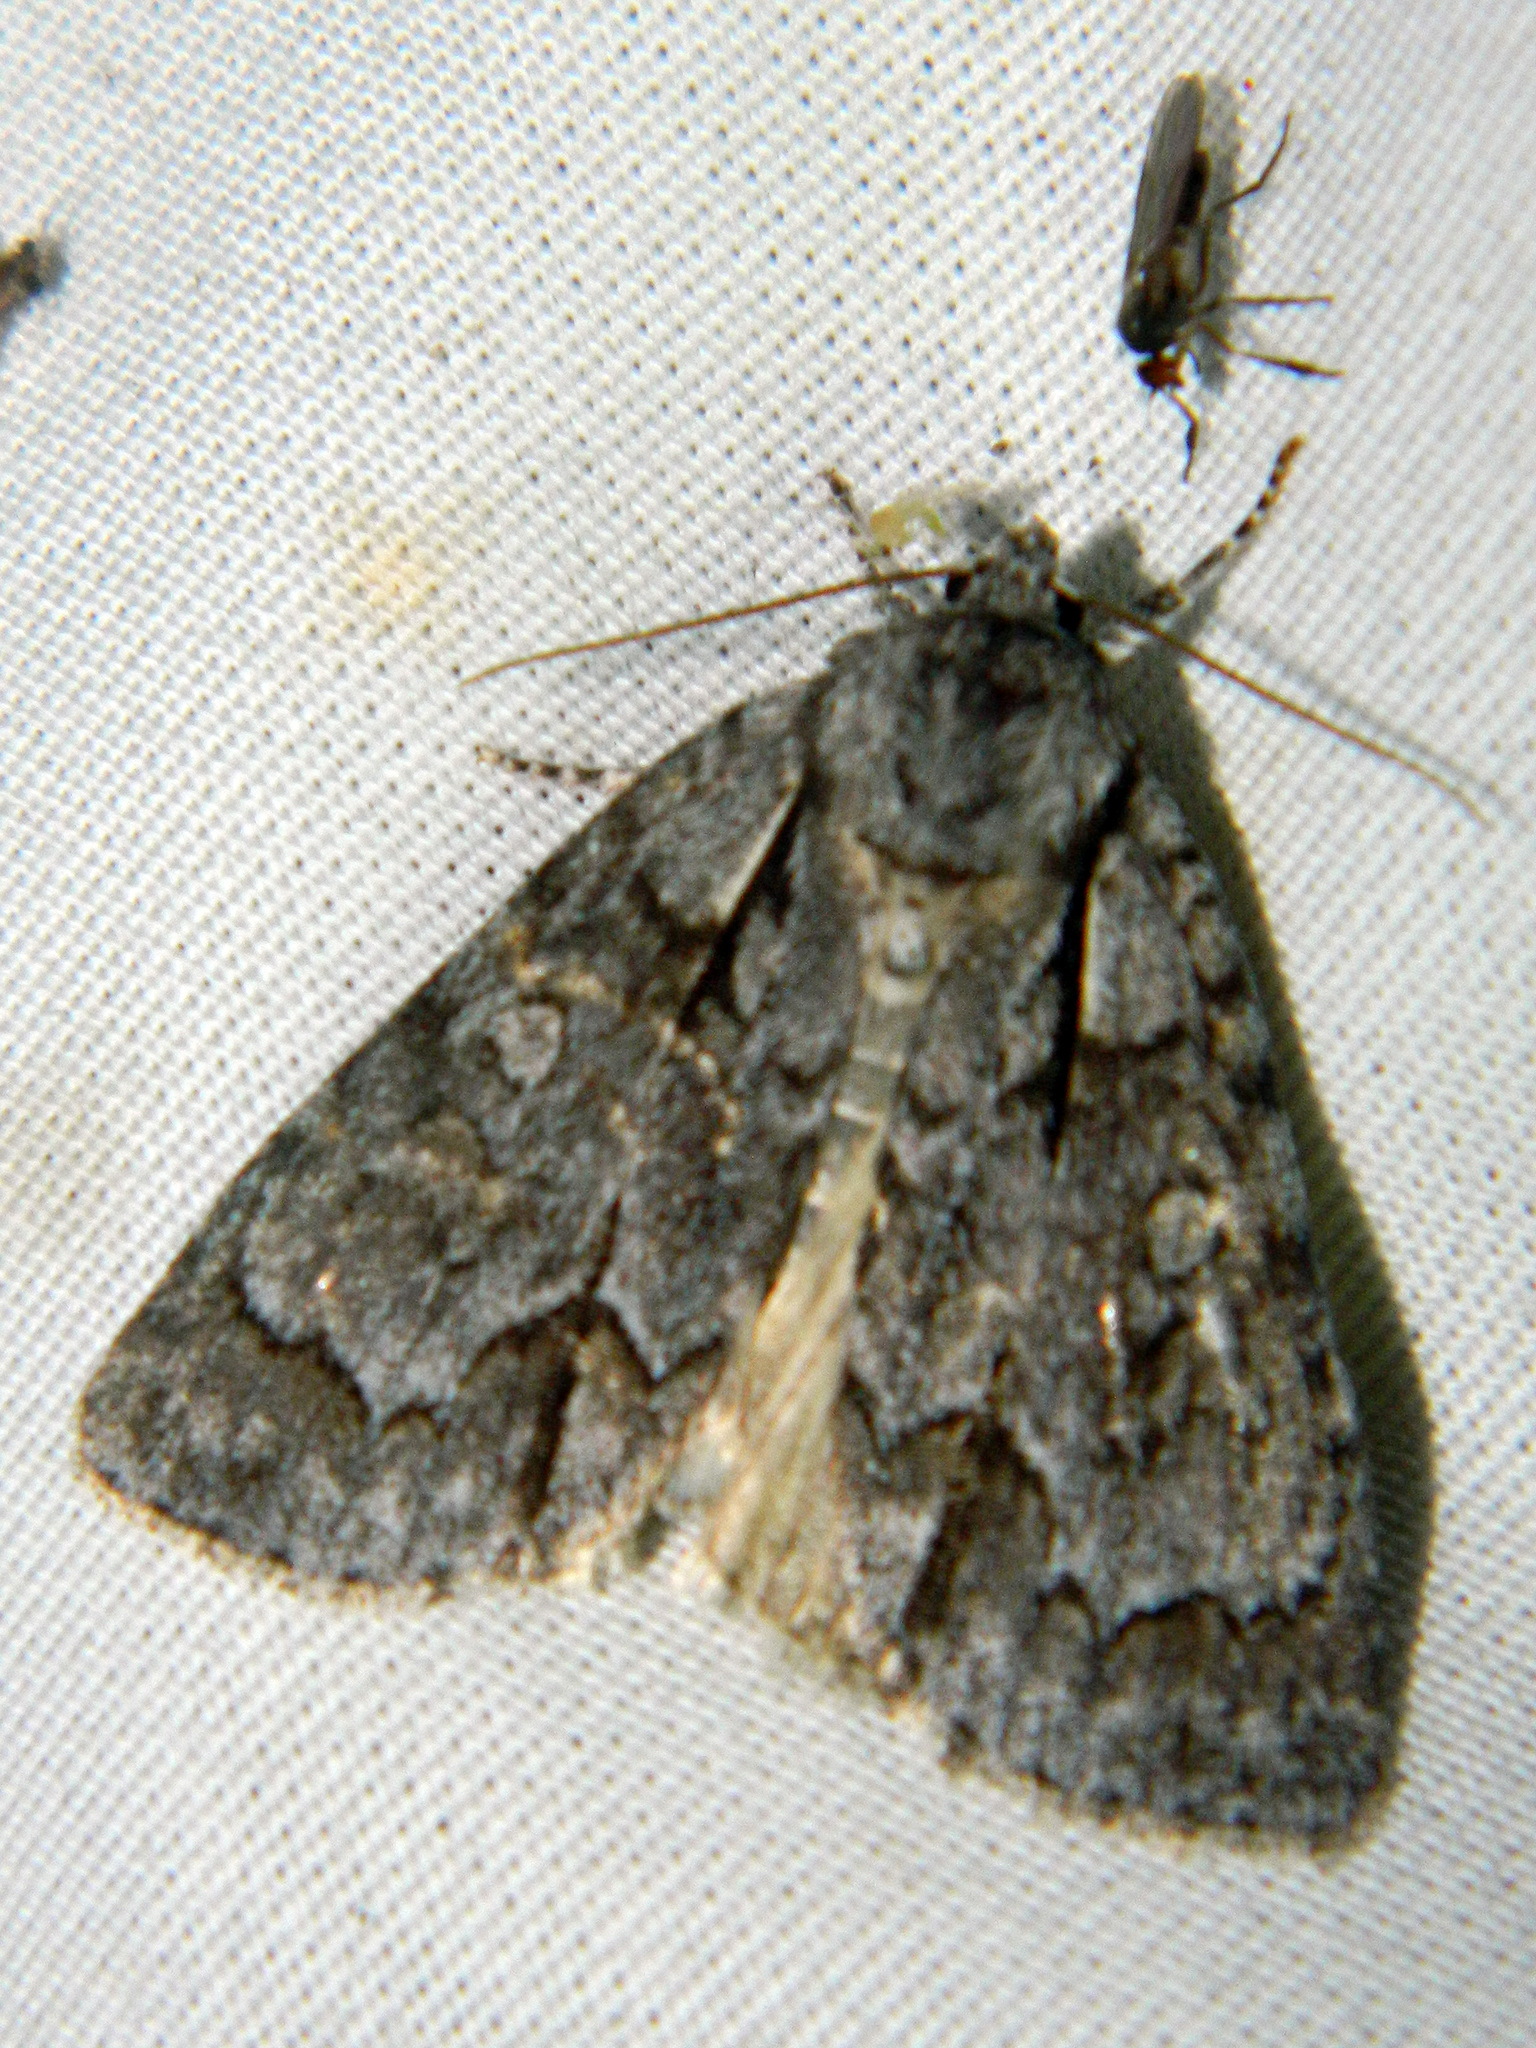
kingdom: Animalia
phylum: Arthropoda
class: Insecta
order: Lepidoptera
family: Noctuidae
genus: Acronicta
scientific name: Acronicta grisea
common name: Gray dagger
